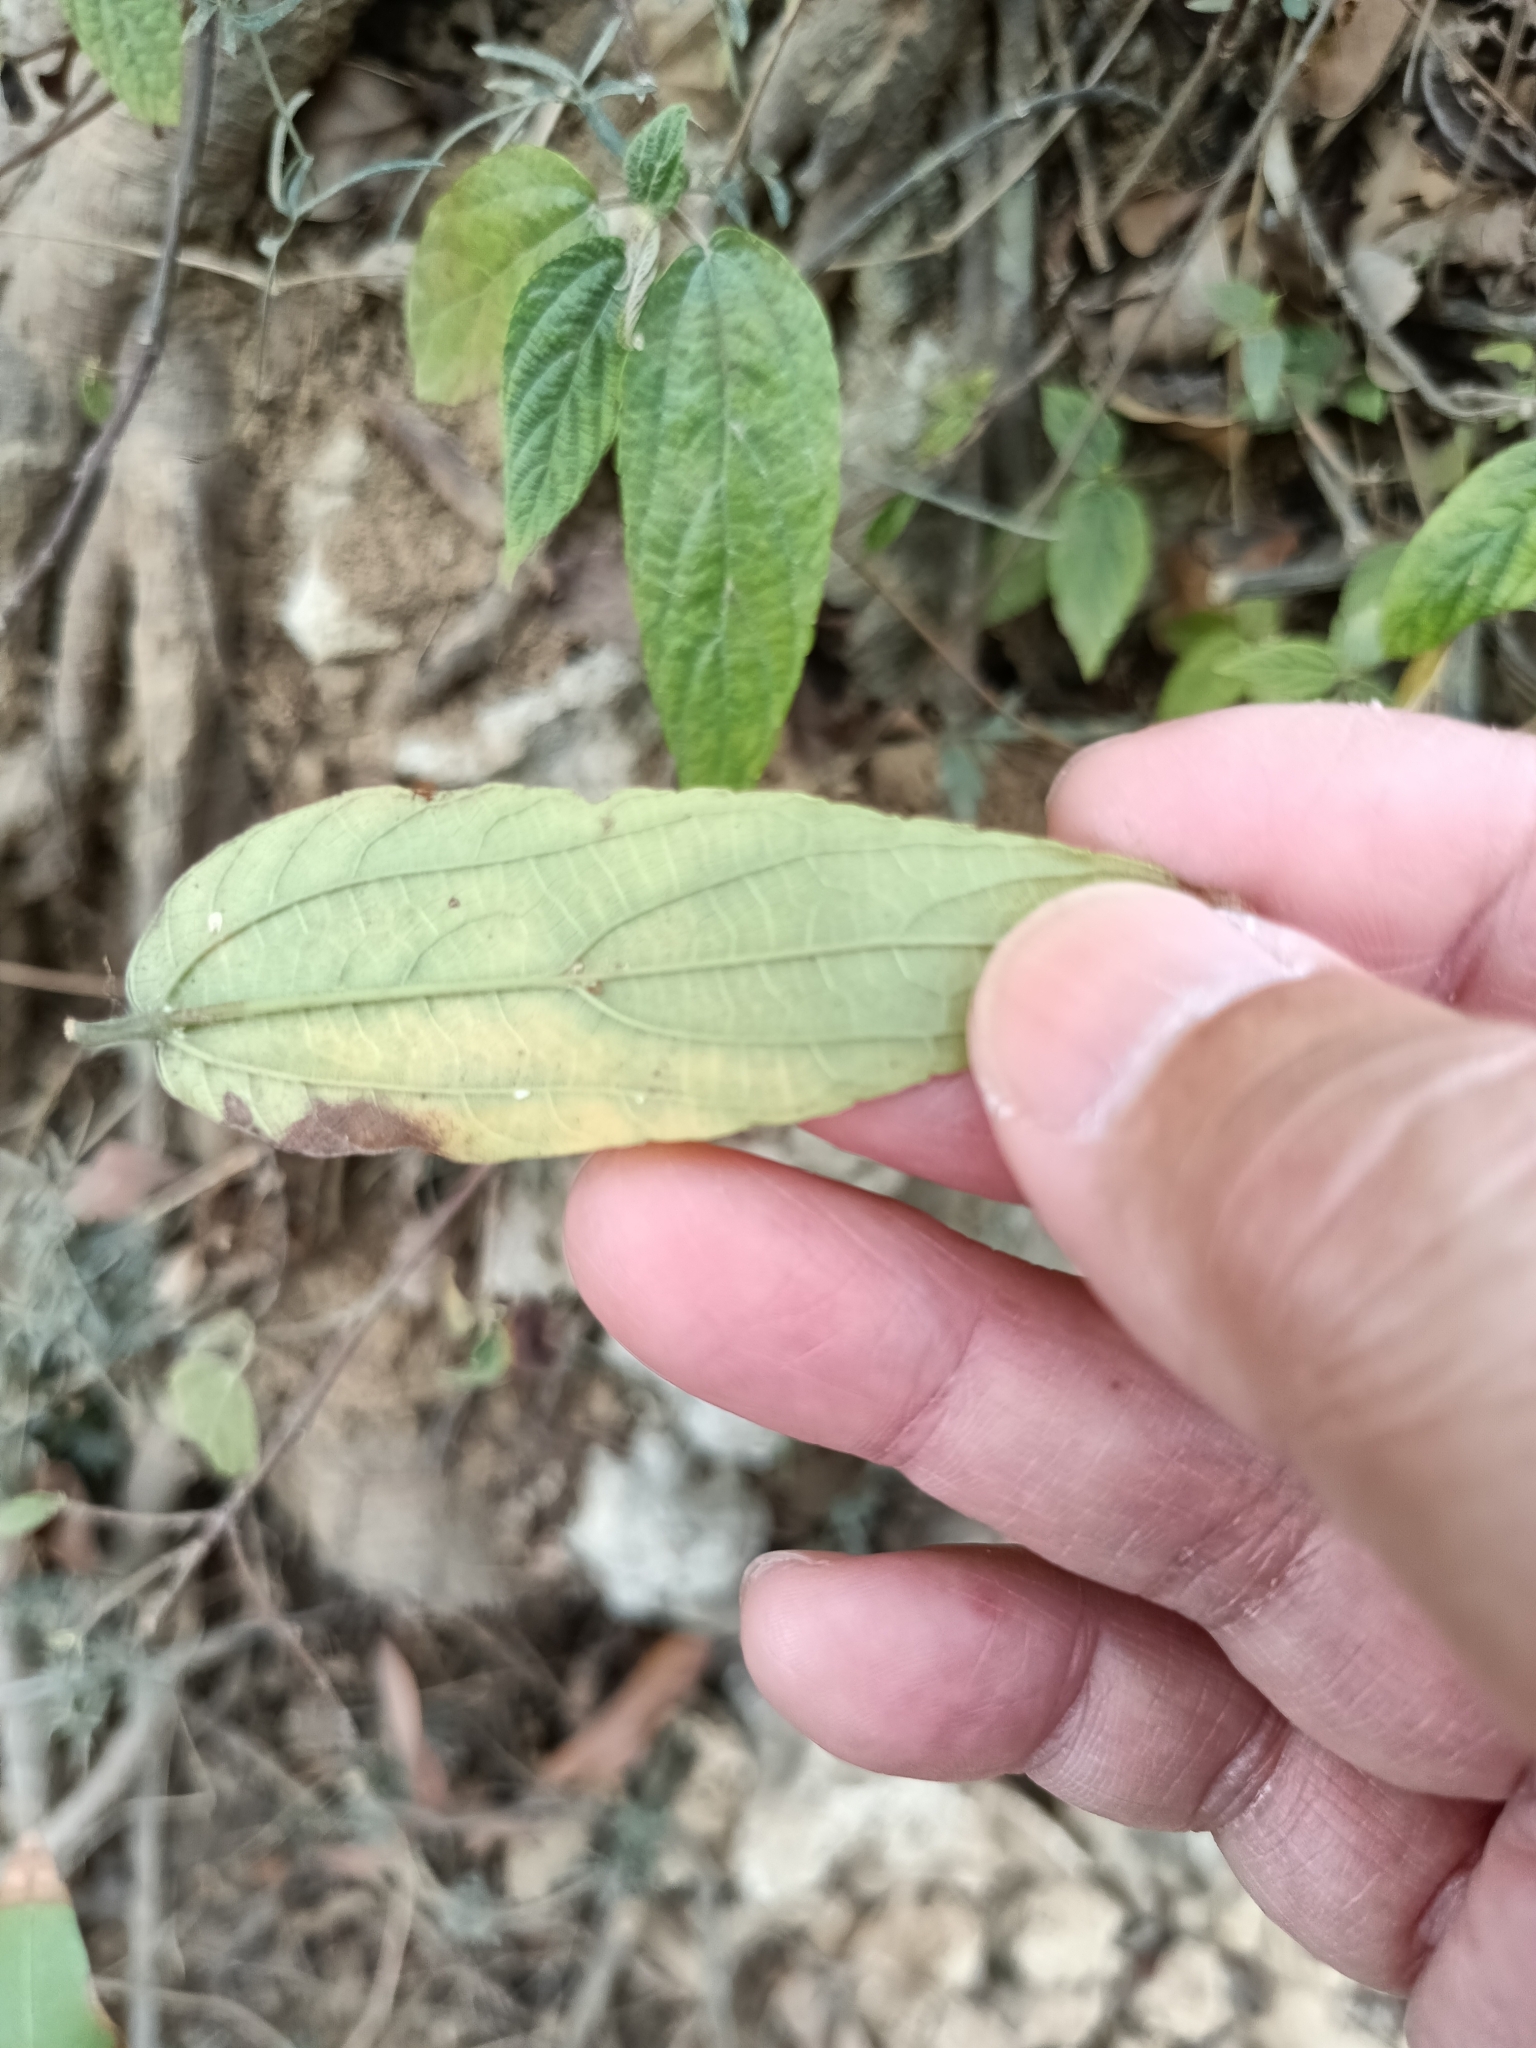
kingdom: Plantae
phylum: Tracheophyta
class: Magnoliopsida
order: Rosales
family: Urticaceae
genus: Boehmeria
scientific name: Boehmeria zollingeriana
